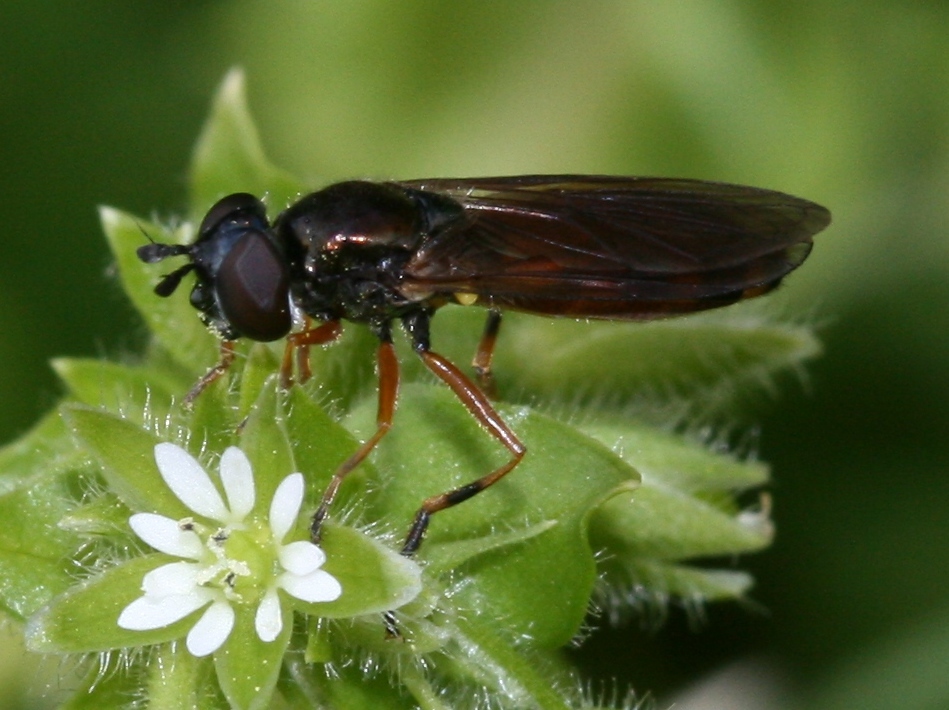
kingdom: Animalia
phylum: Arthropoda
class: Insecta
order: Diptera
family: Syrphidae
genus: Pyrophaena
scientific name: Pyrophaena granditarsa
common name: Hornhand sedgesitter
